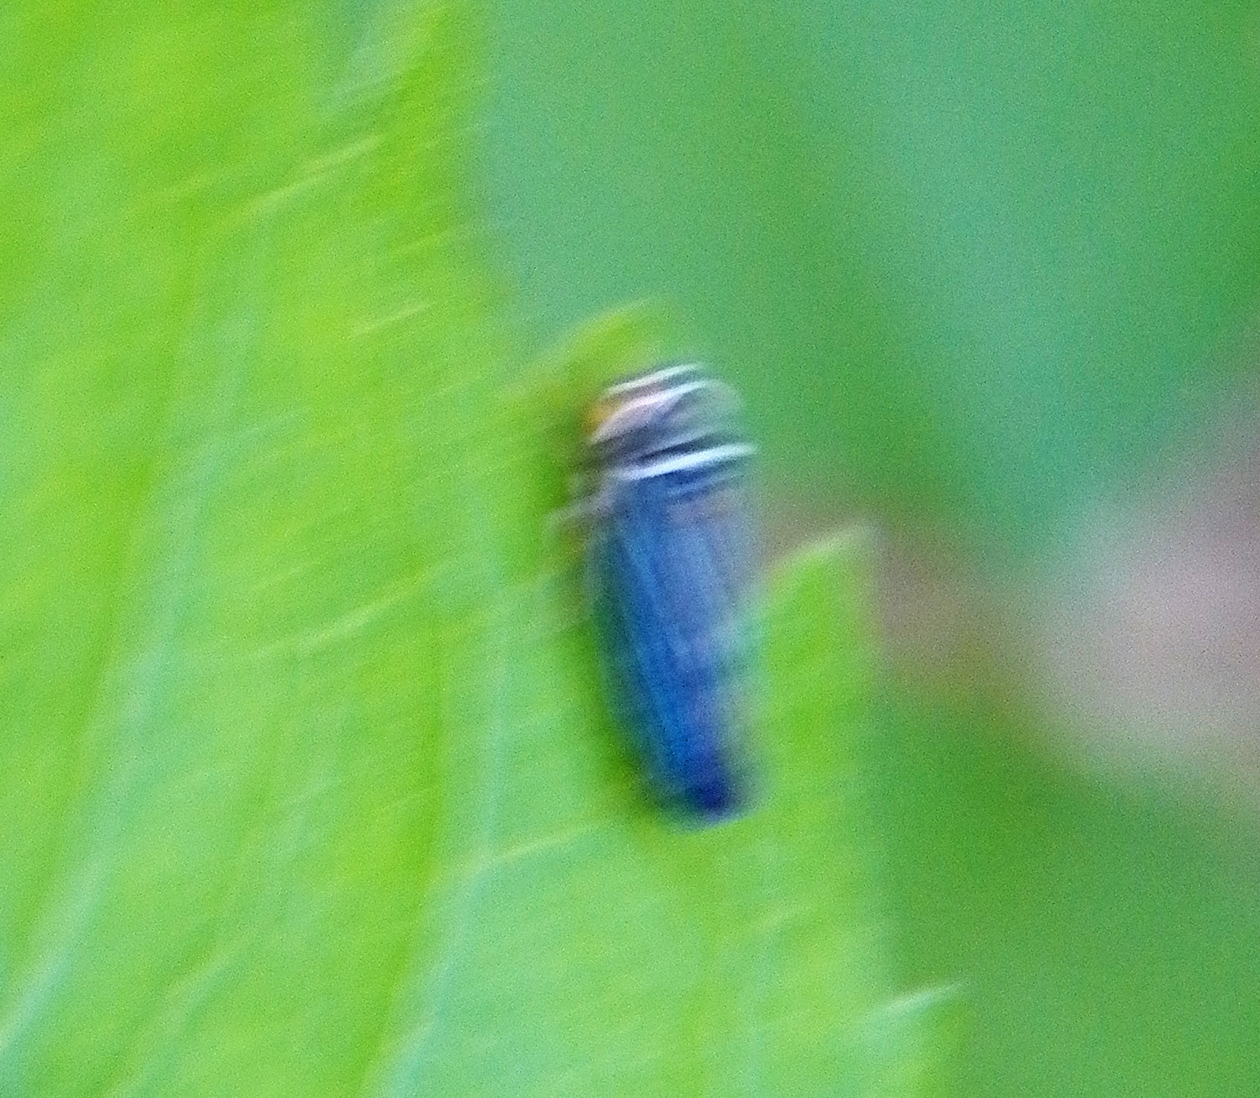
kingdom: Animalia
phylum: Arthropoda
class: Insecta
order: Hemiptera
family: Cicadellidae
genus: Tylozygus
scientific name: Tylozygus bifidus
